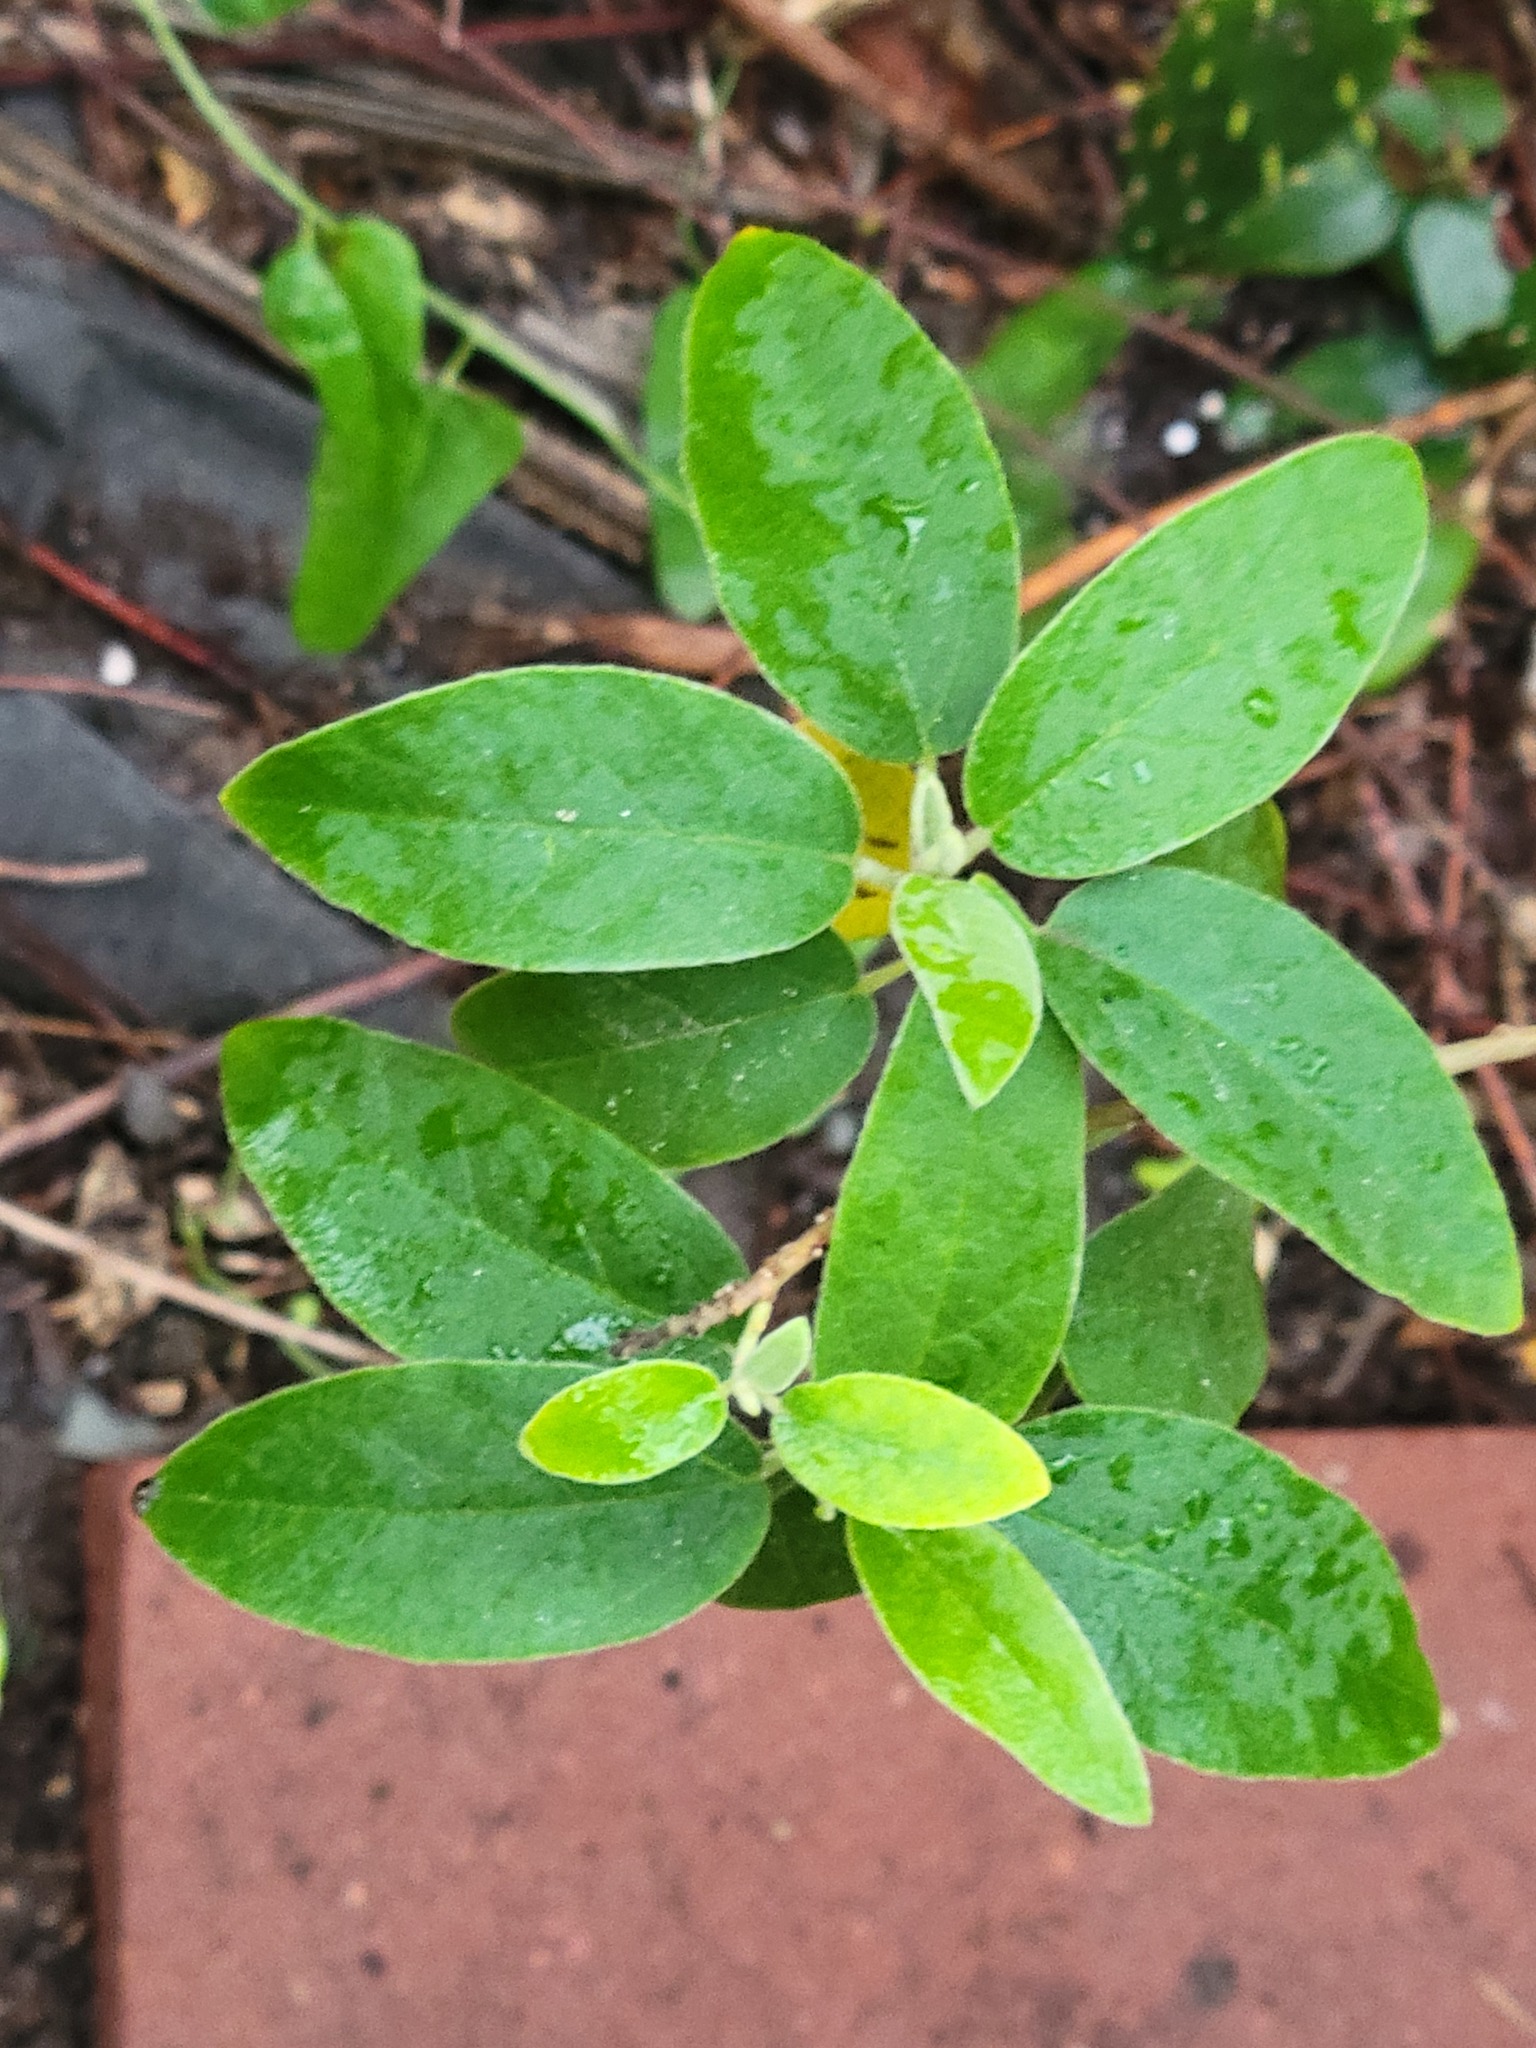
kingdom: Plantae
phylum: Tracheophyta
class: Magnoliopsida
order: Malpighiales
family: Euphorbiaceae
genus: Croton
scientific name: Croton incanus
